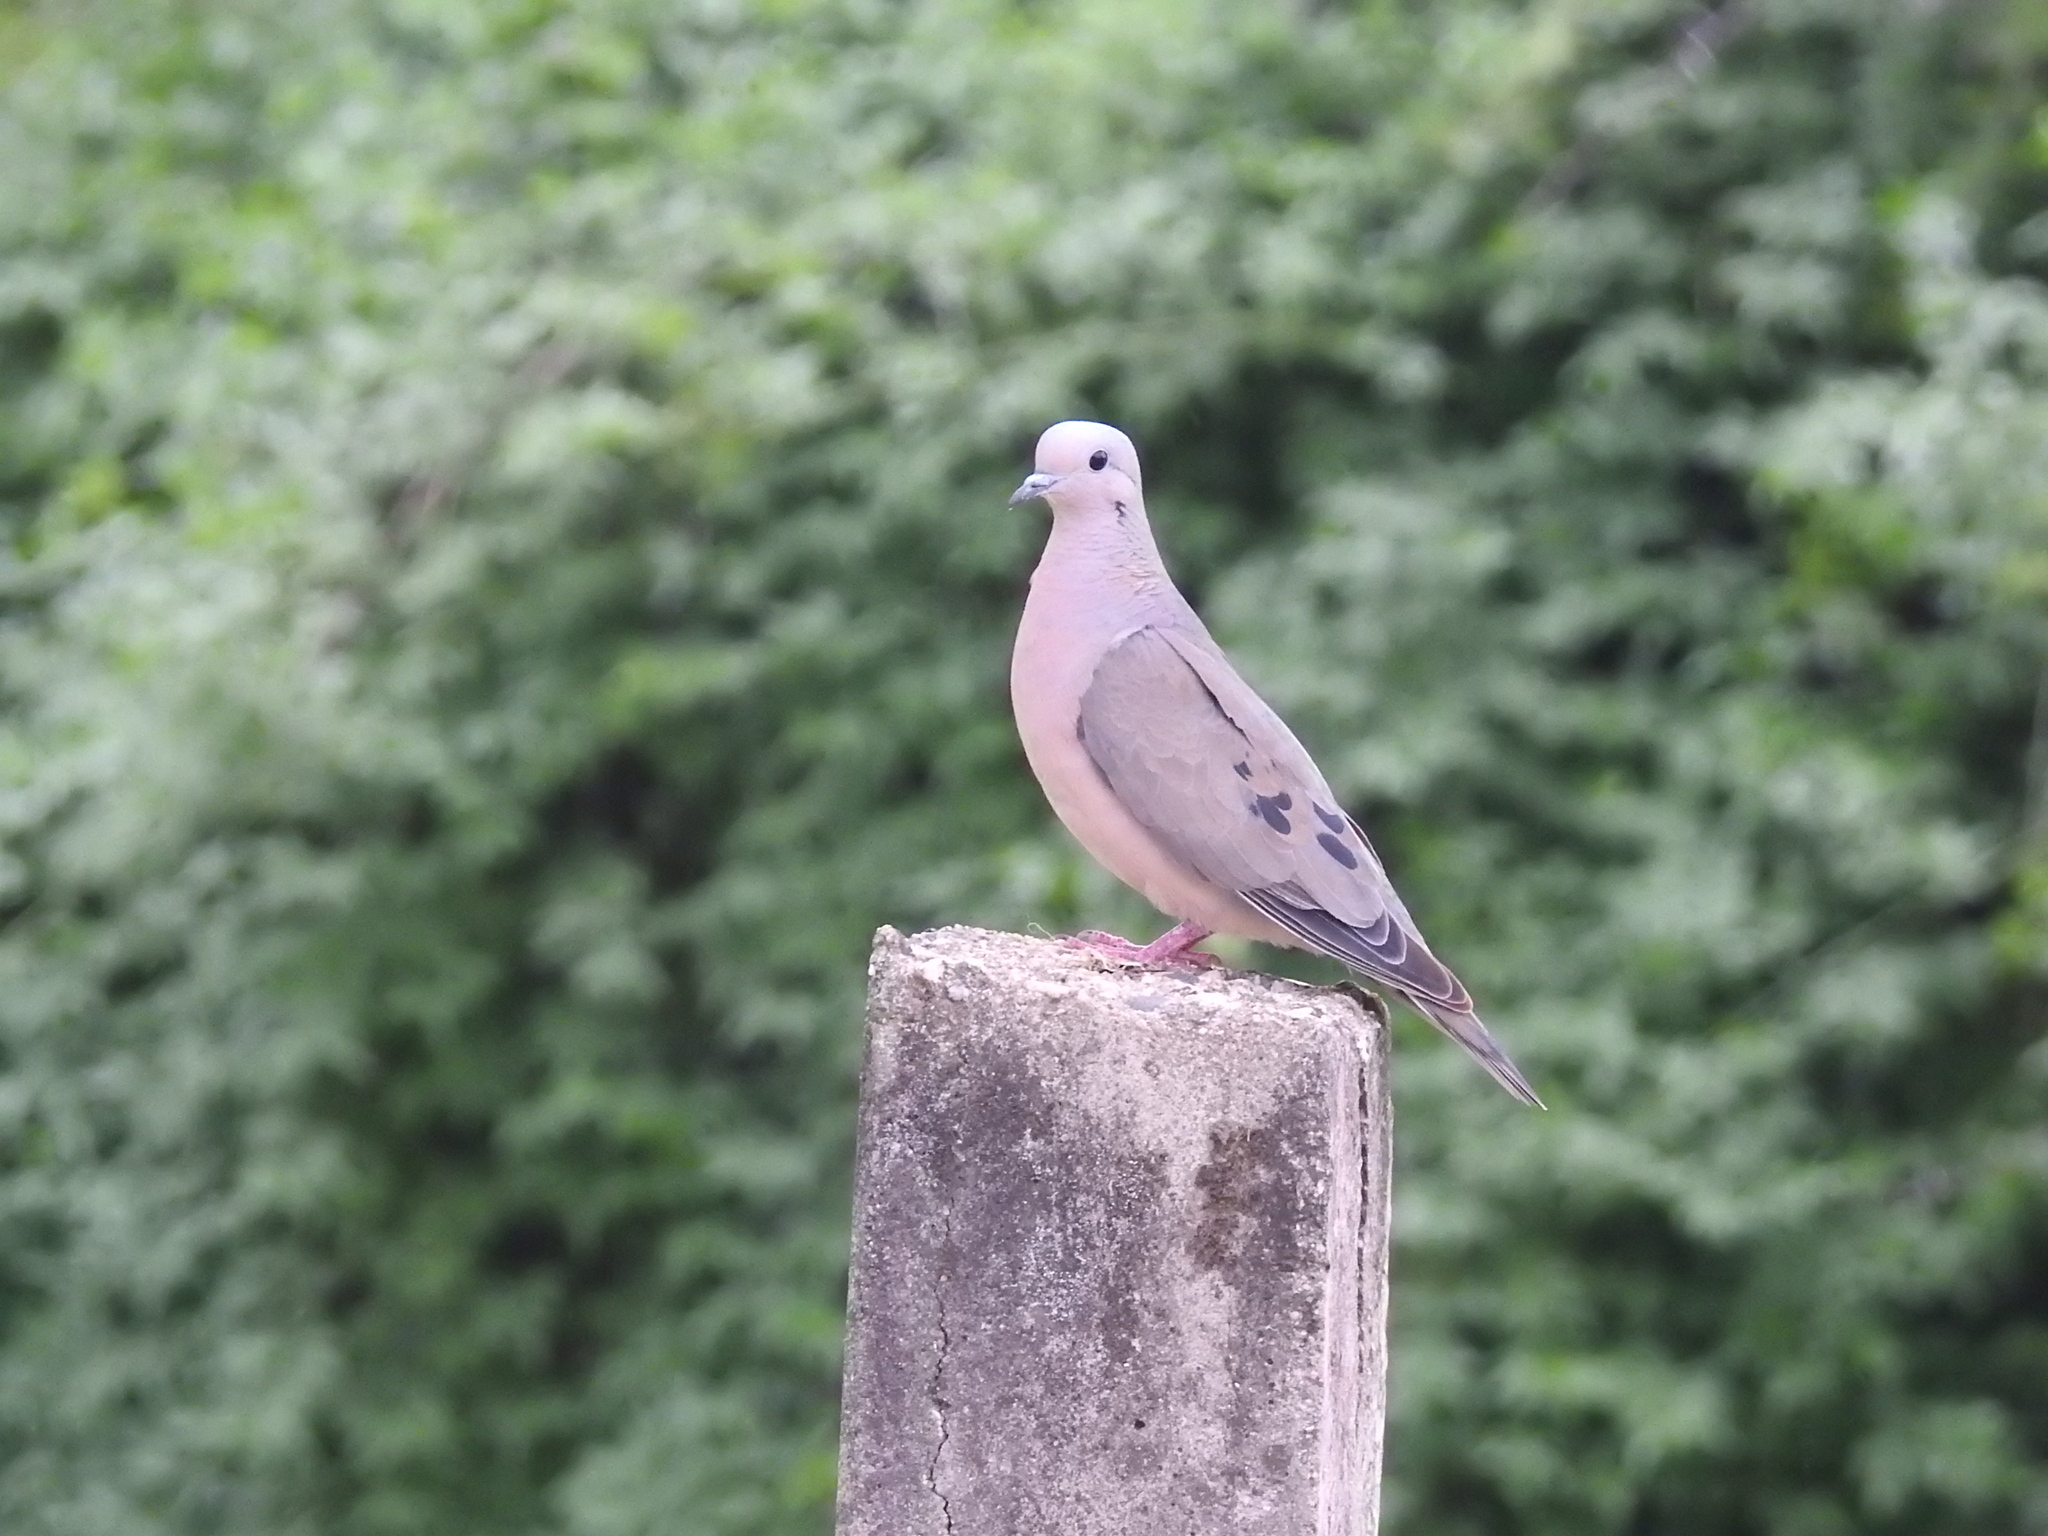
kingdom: Animalia
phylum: Chordata
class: Aves
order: Columbiformes
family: Columbidae
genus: Zenaida
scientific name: Zenaida auriculata
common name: Eared dove
